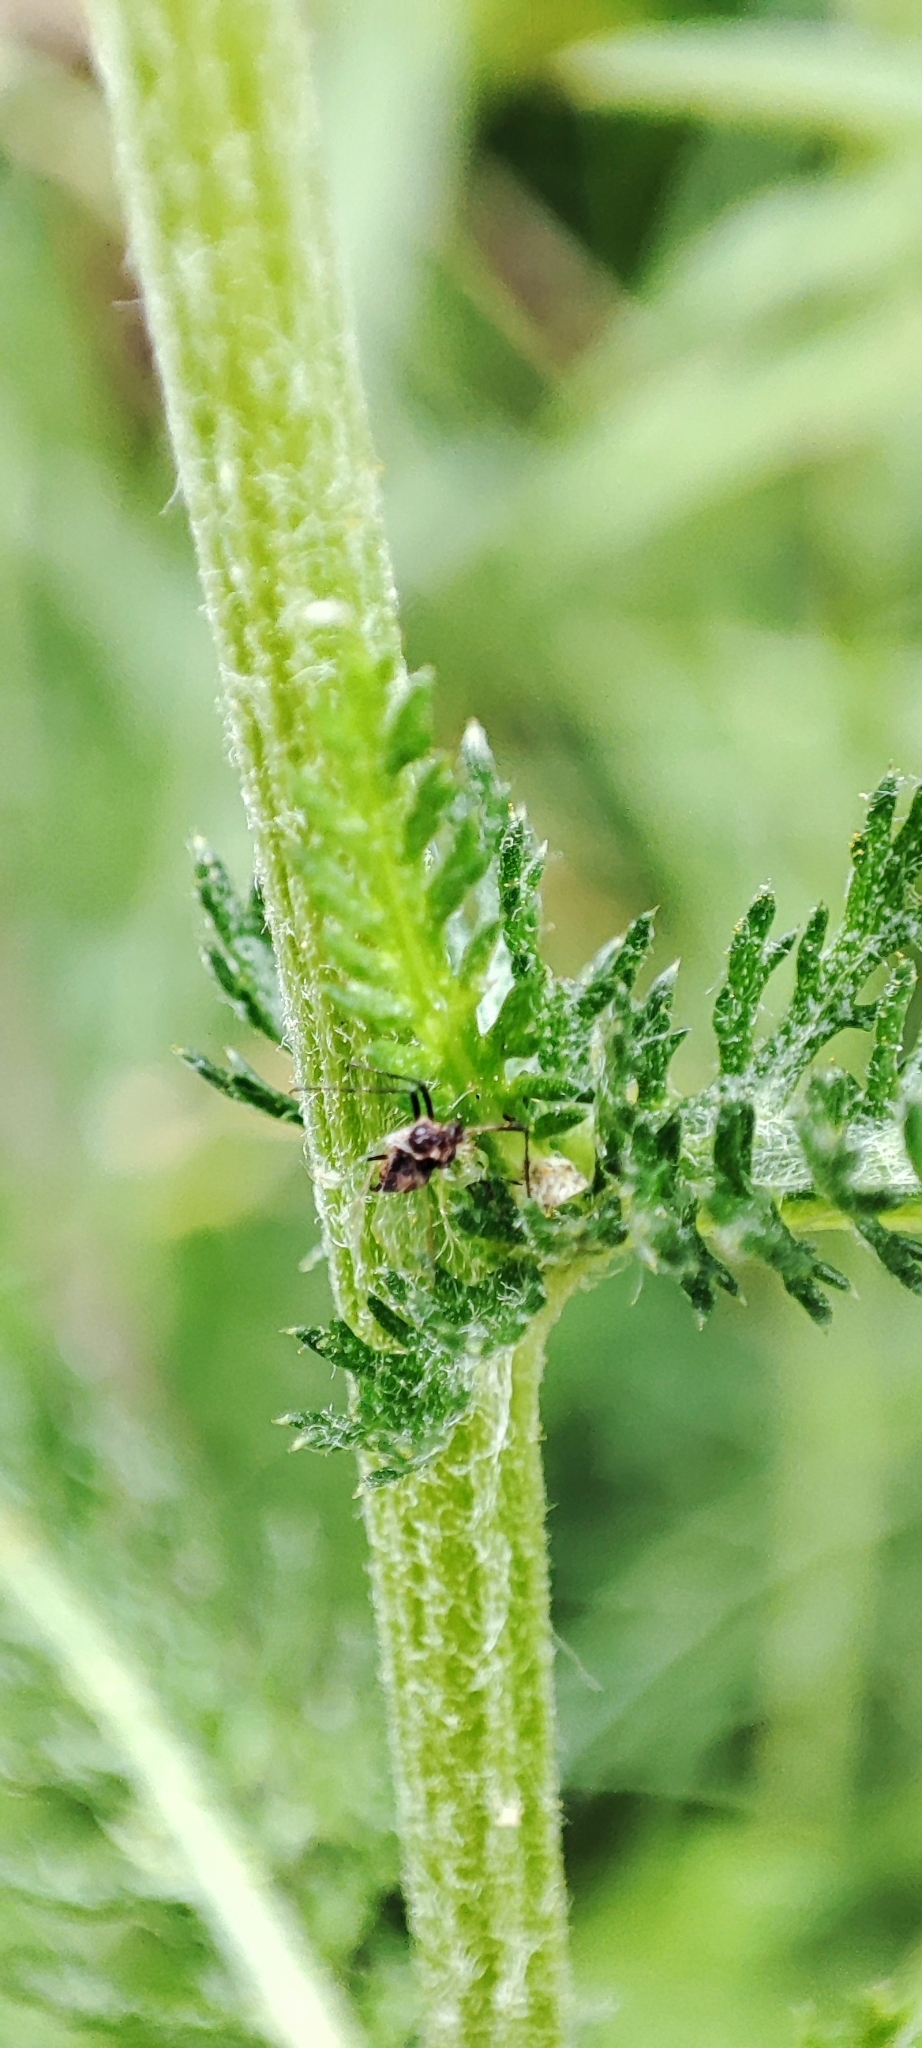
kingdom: Plantae
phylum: Tracheophyta
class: Magnoliopsida
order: Asterales
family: Asteraceae
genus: Achillea
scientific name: Achillea millefolium
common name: Yarrow
